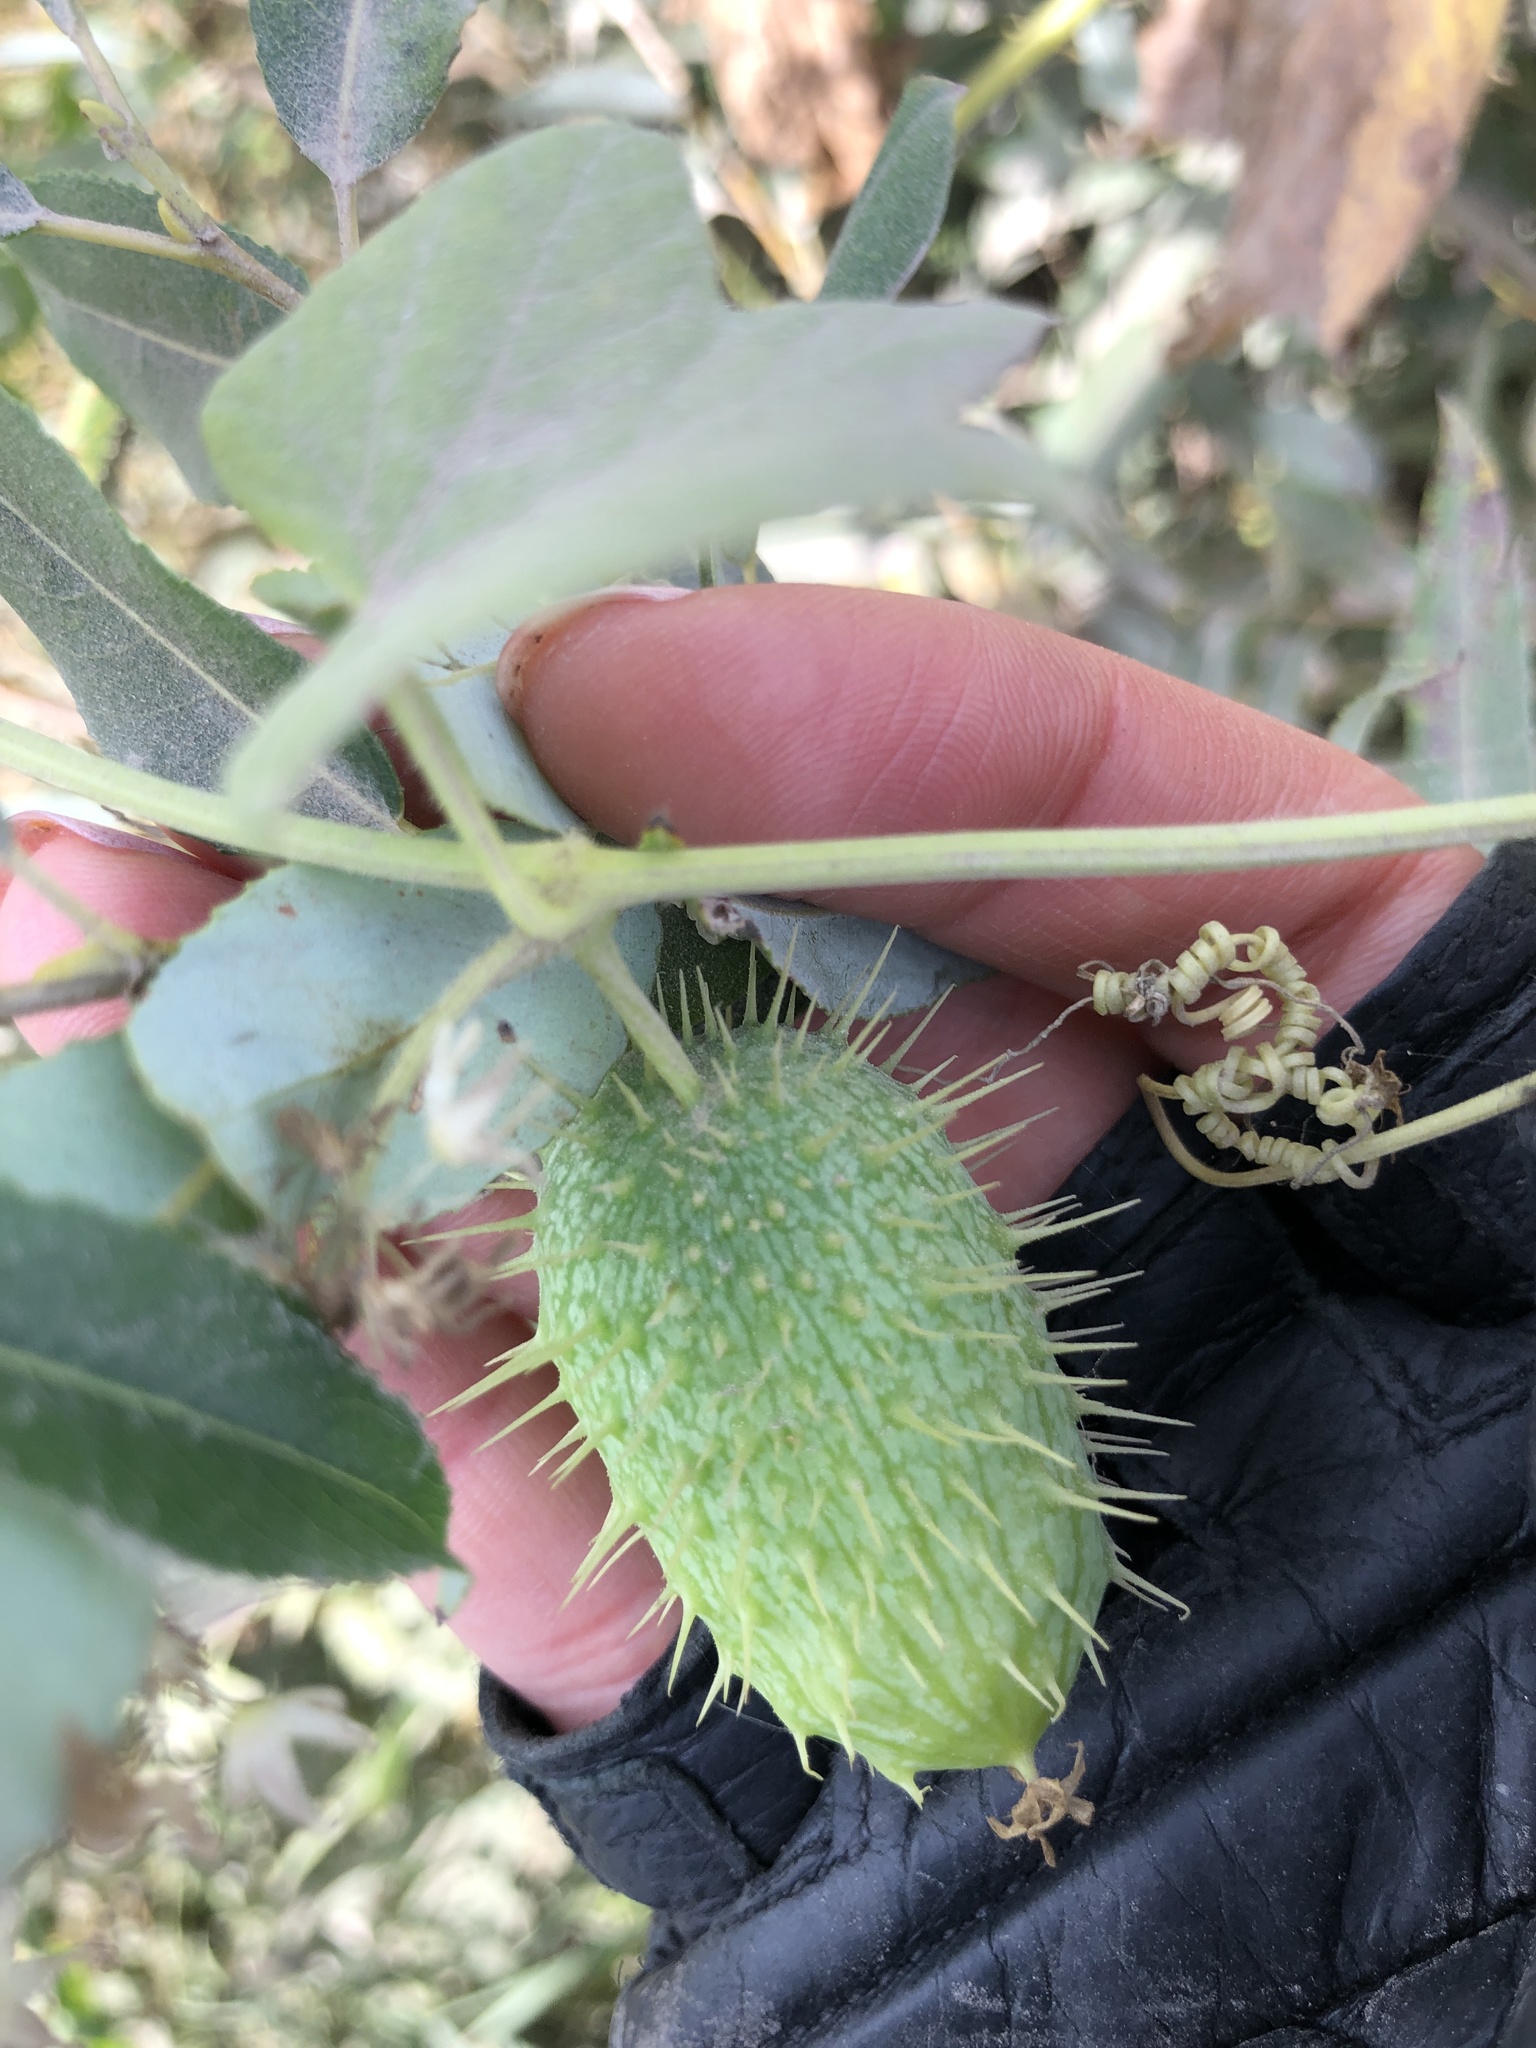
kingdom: Plantae
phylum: Tracheophyta
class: Magnoliopsida
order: Rosales
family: Cannabaceae
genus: Humulus
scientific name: Humulus lupulus
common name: Hop
